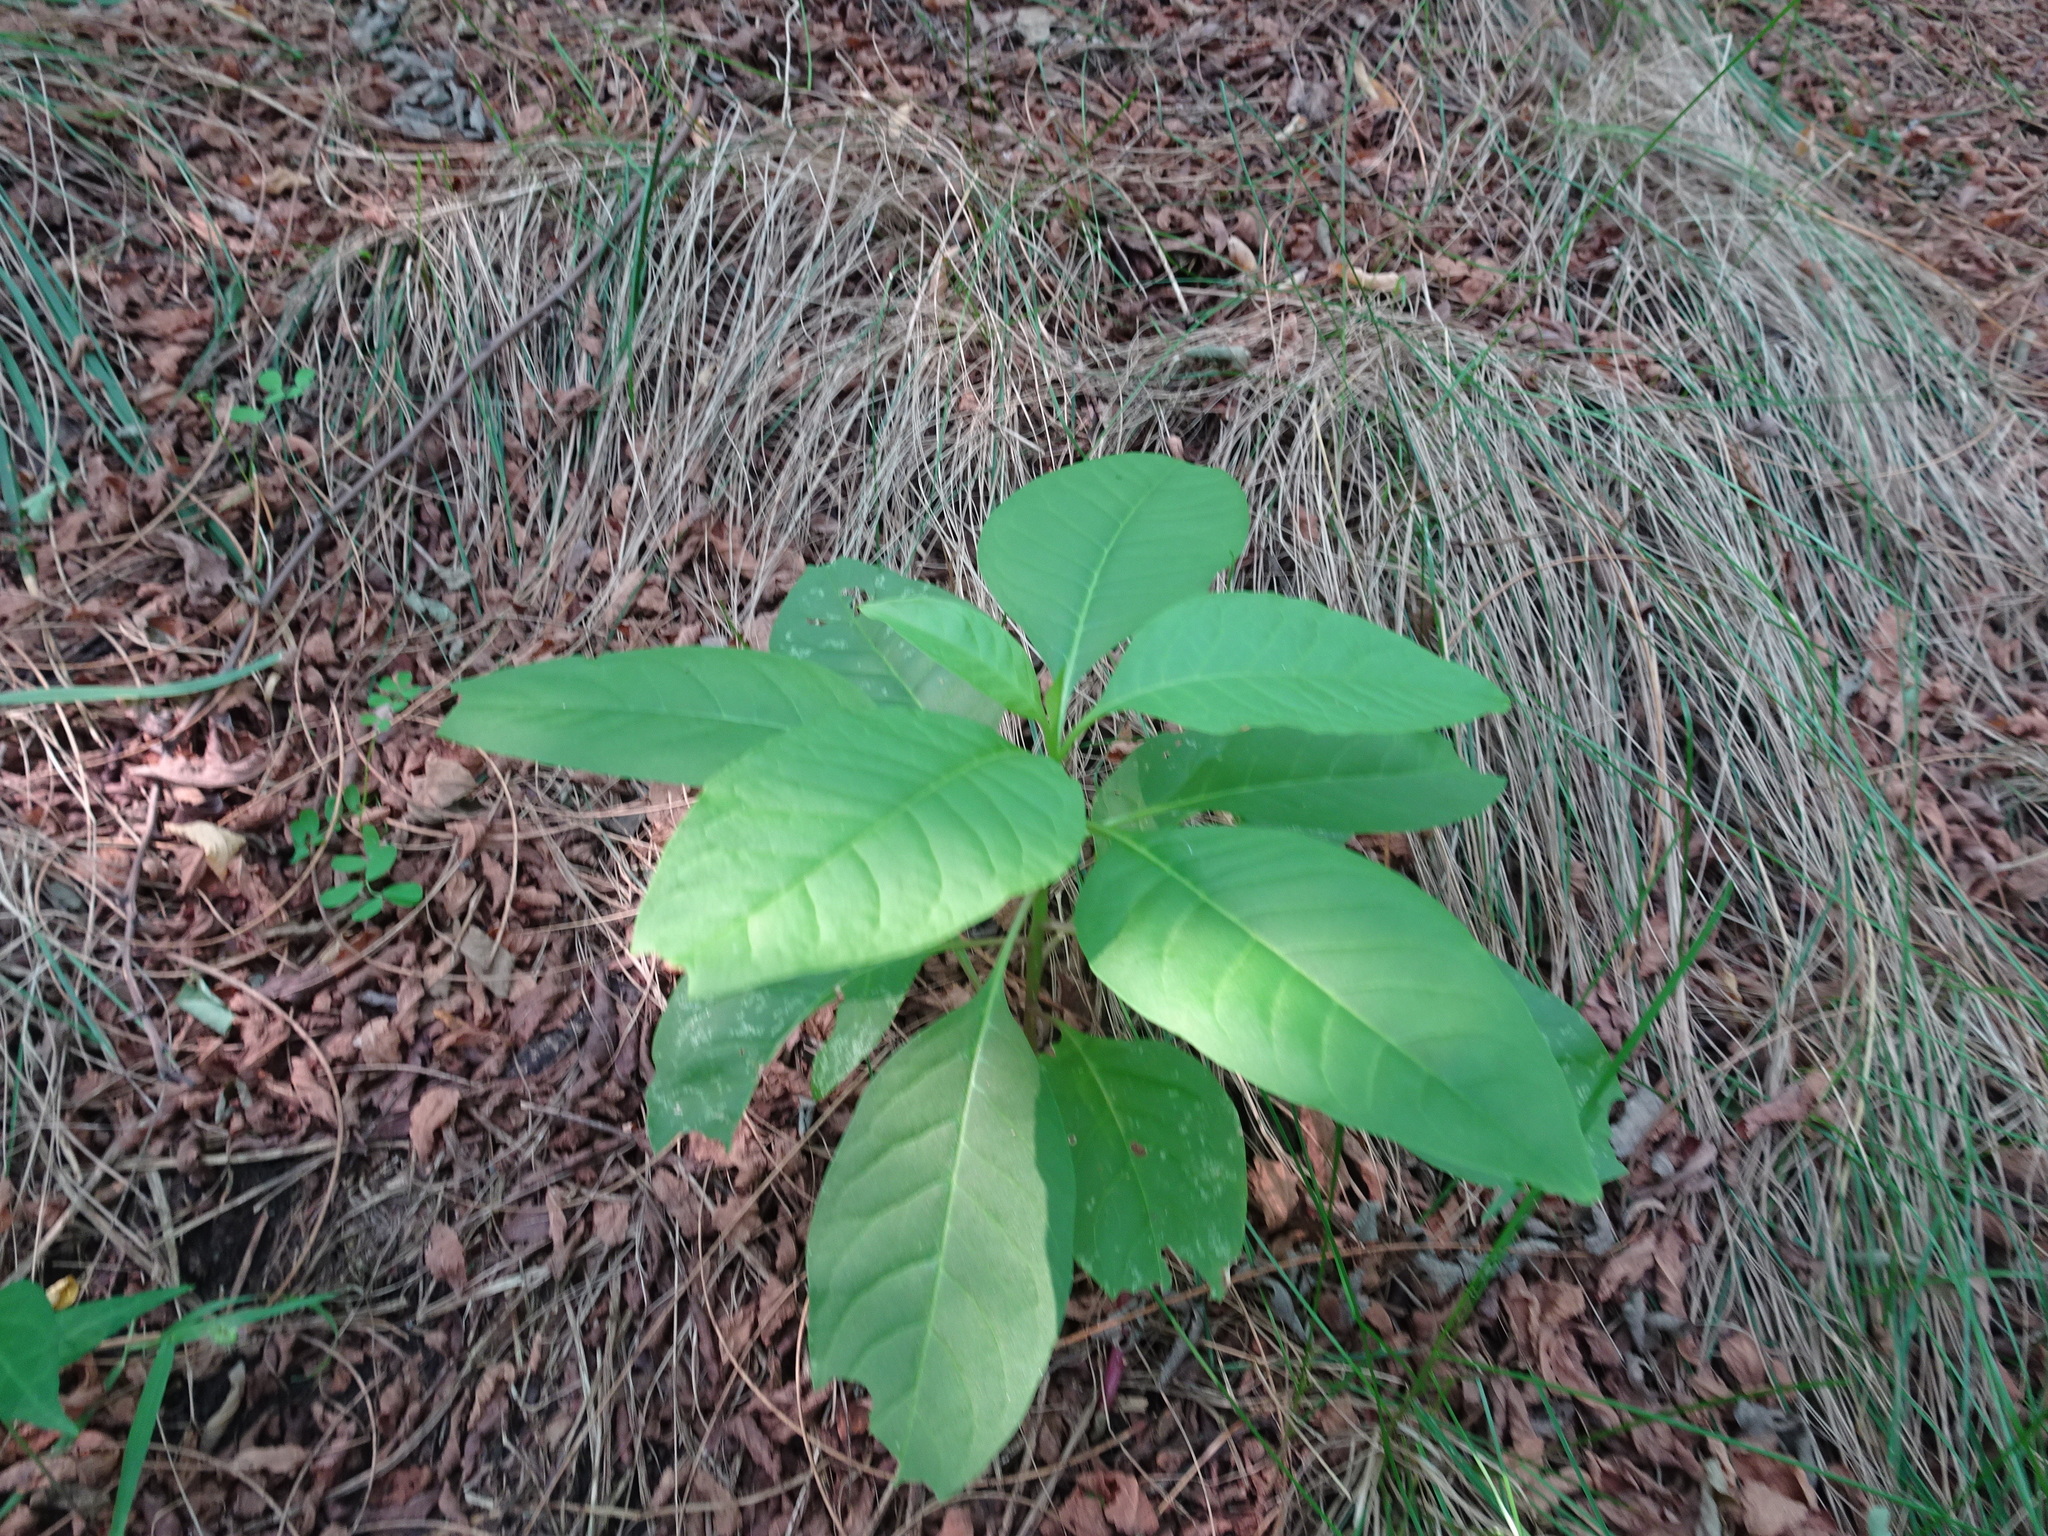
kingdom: Plantae
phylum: Tracheophyta
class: Magnoliopsida
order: Caryophyllales
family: Phytolaccaceae
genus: Phytolacca
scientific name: Phytolacca americana
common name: American pokeweed
